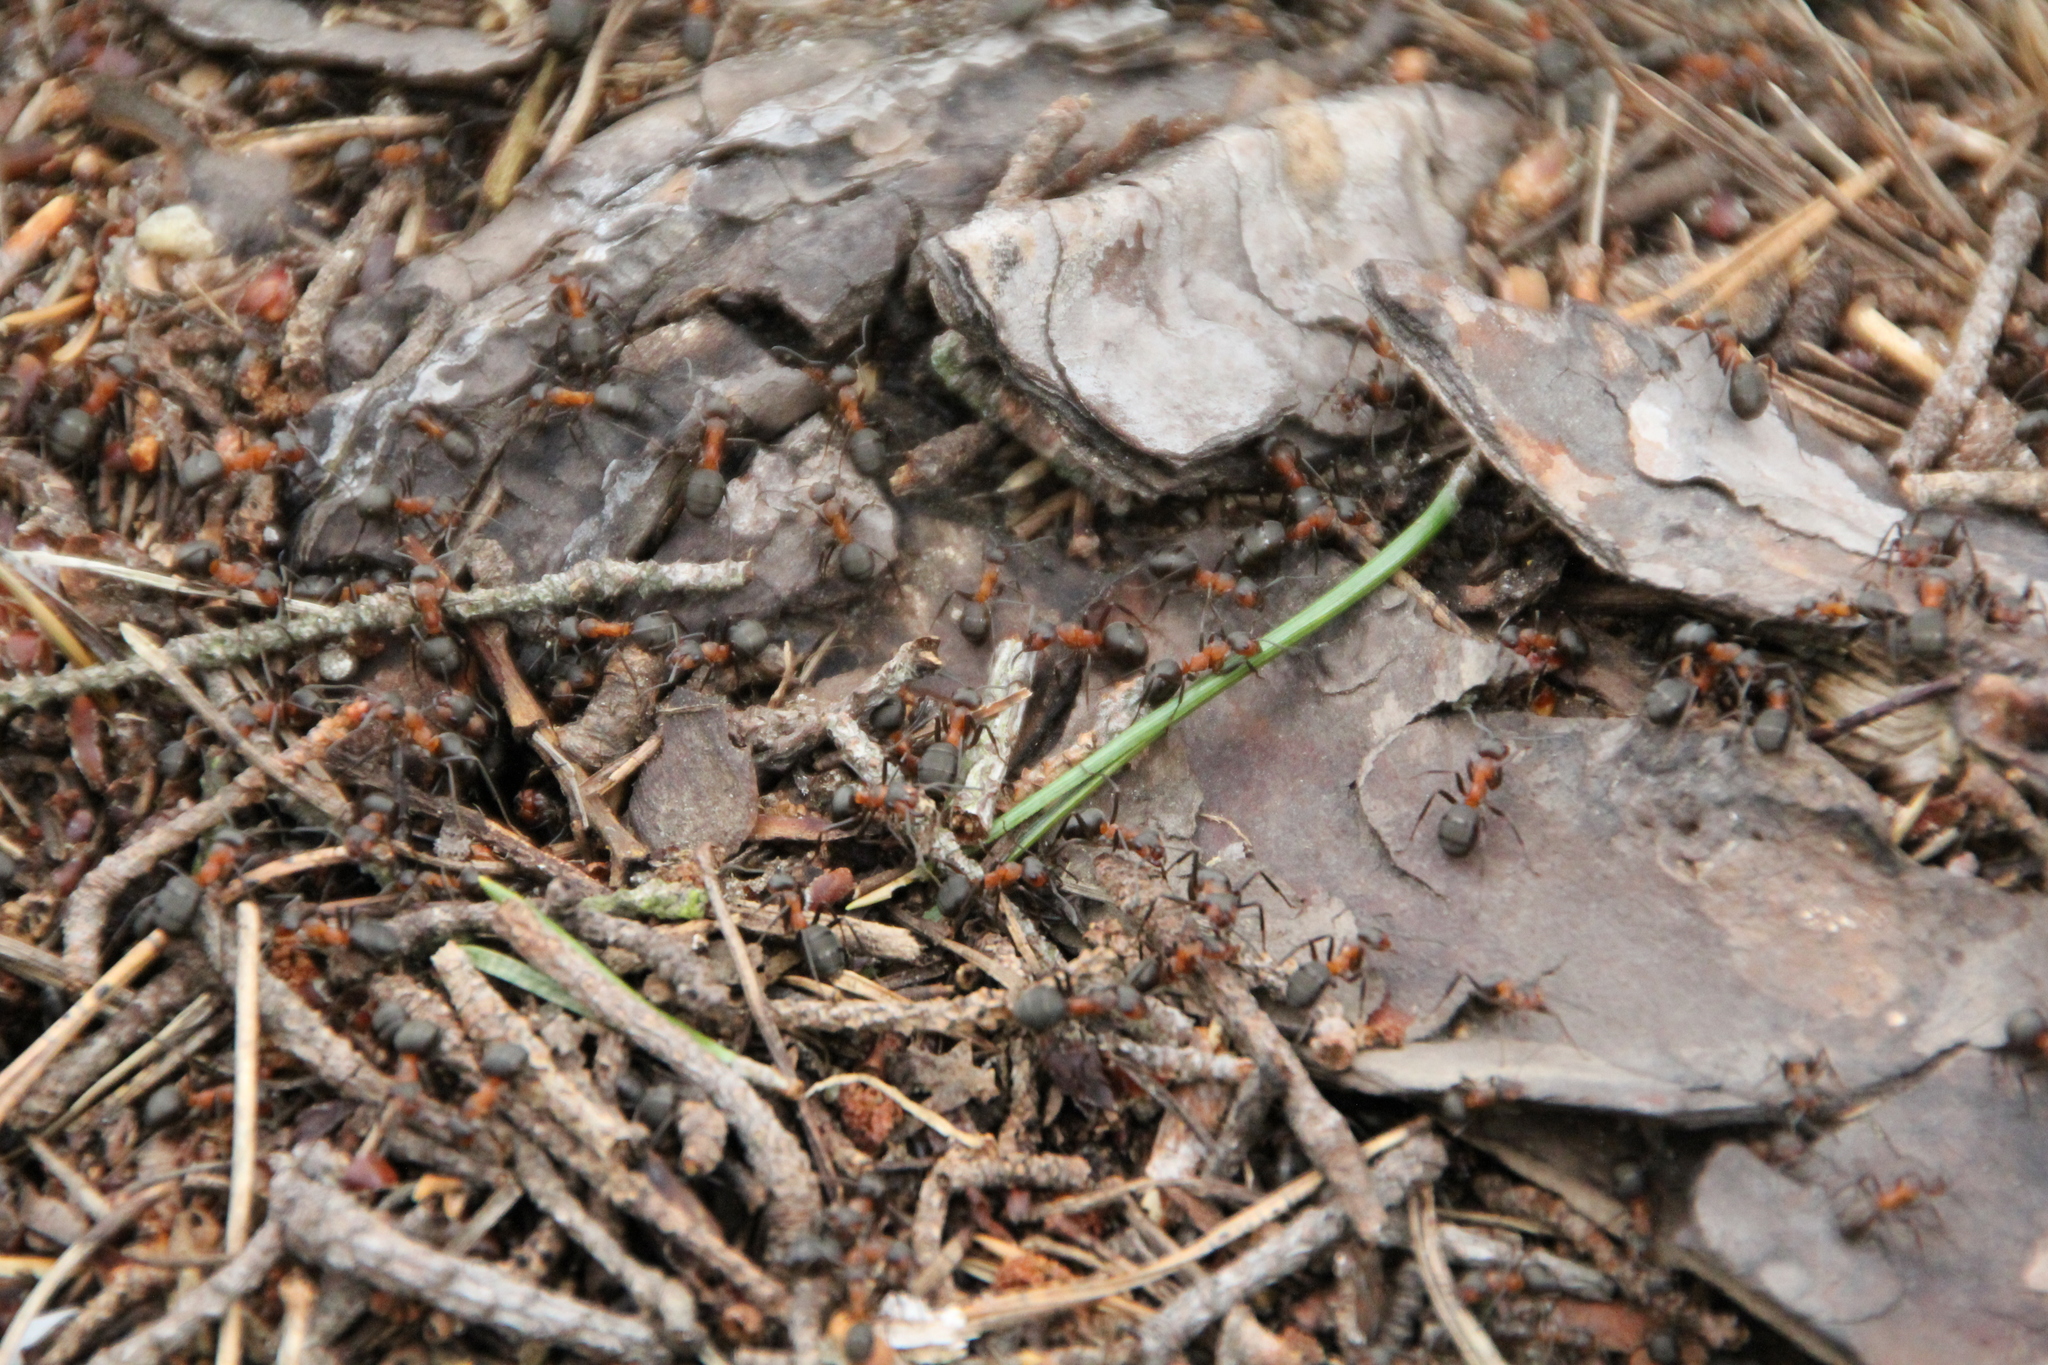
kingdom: Animalia
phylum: Arthropoda
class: Insecta
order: Hymenoptera
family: Formicidae
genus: Formica
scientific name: Formica rufa
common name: Red wood ant
